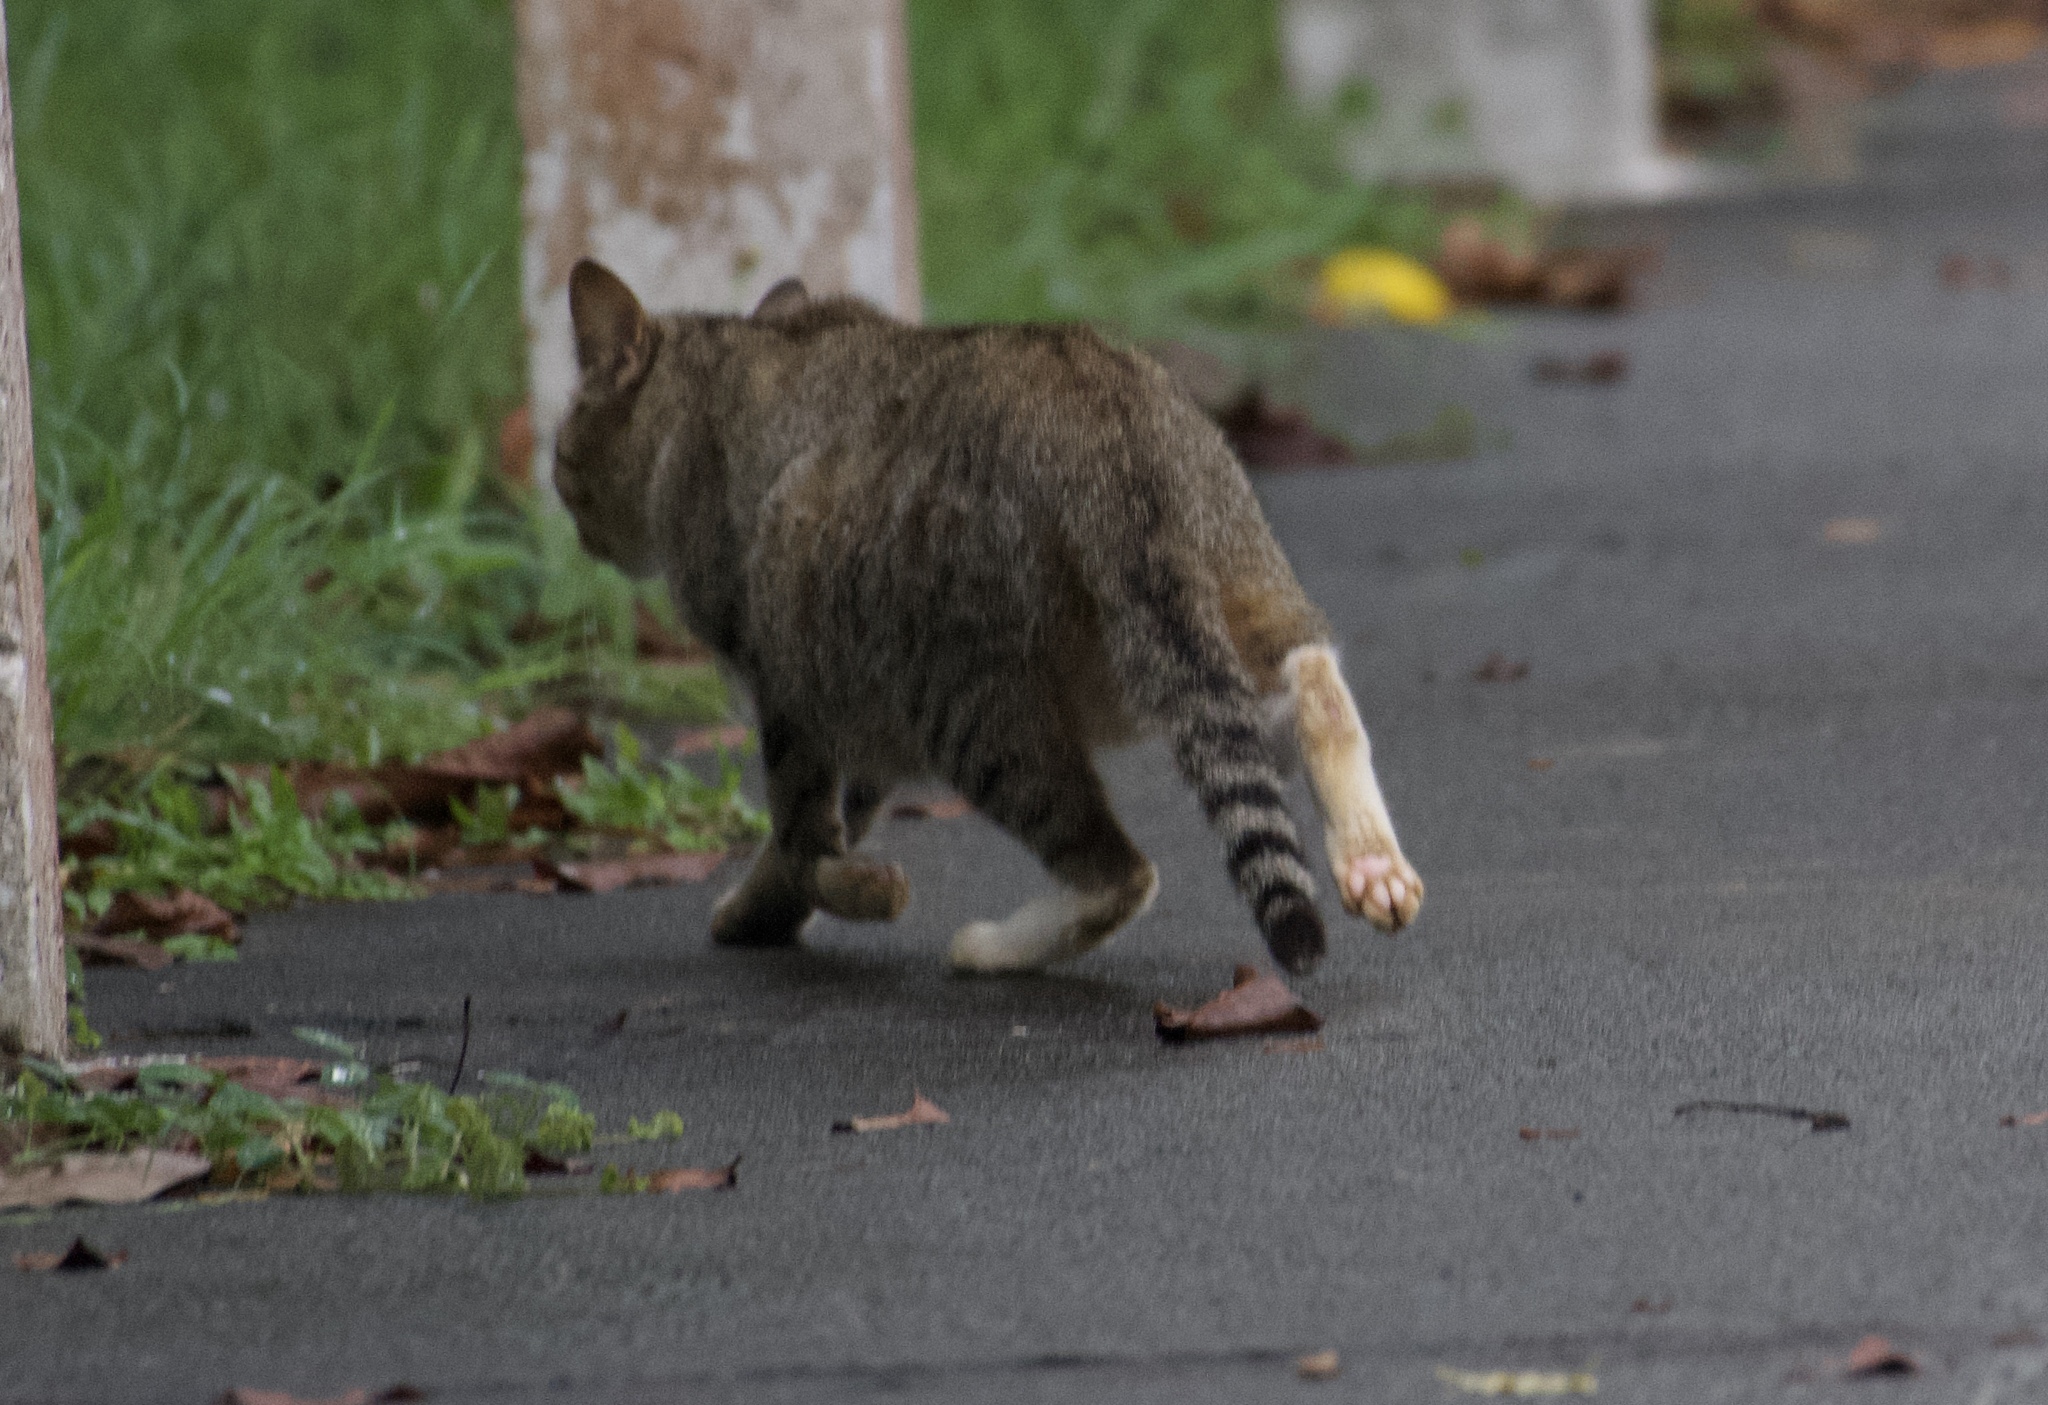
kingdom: Animalia
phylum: Chordata
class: Mammalia
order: Carnivora
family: Felidae
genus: Felis
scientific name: Felis catus
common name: Domestic cat
